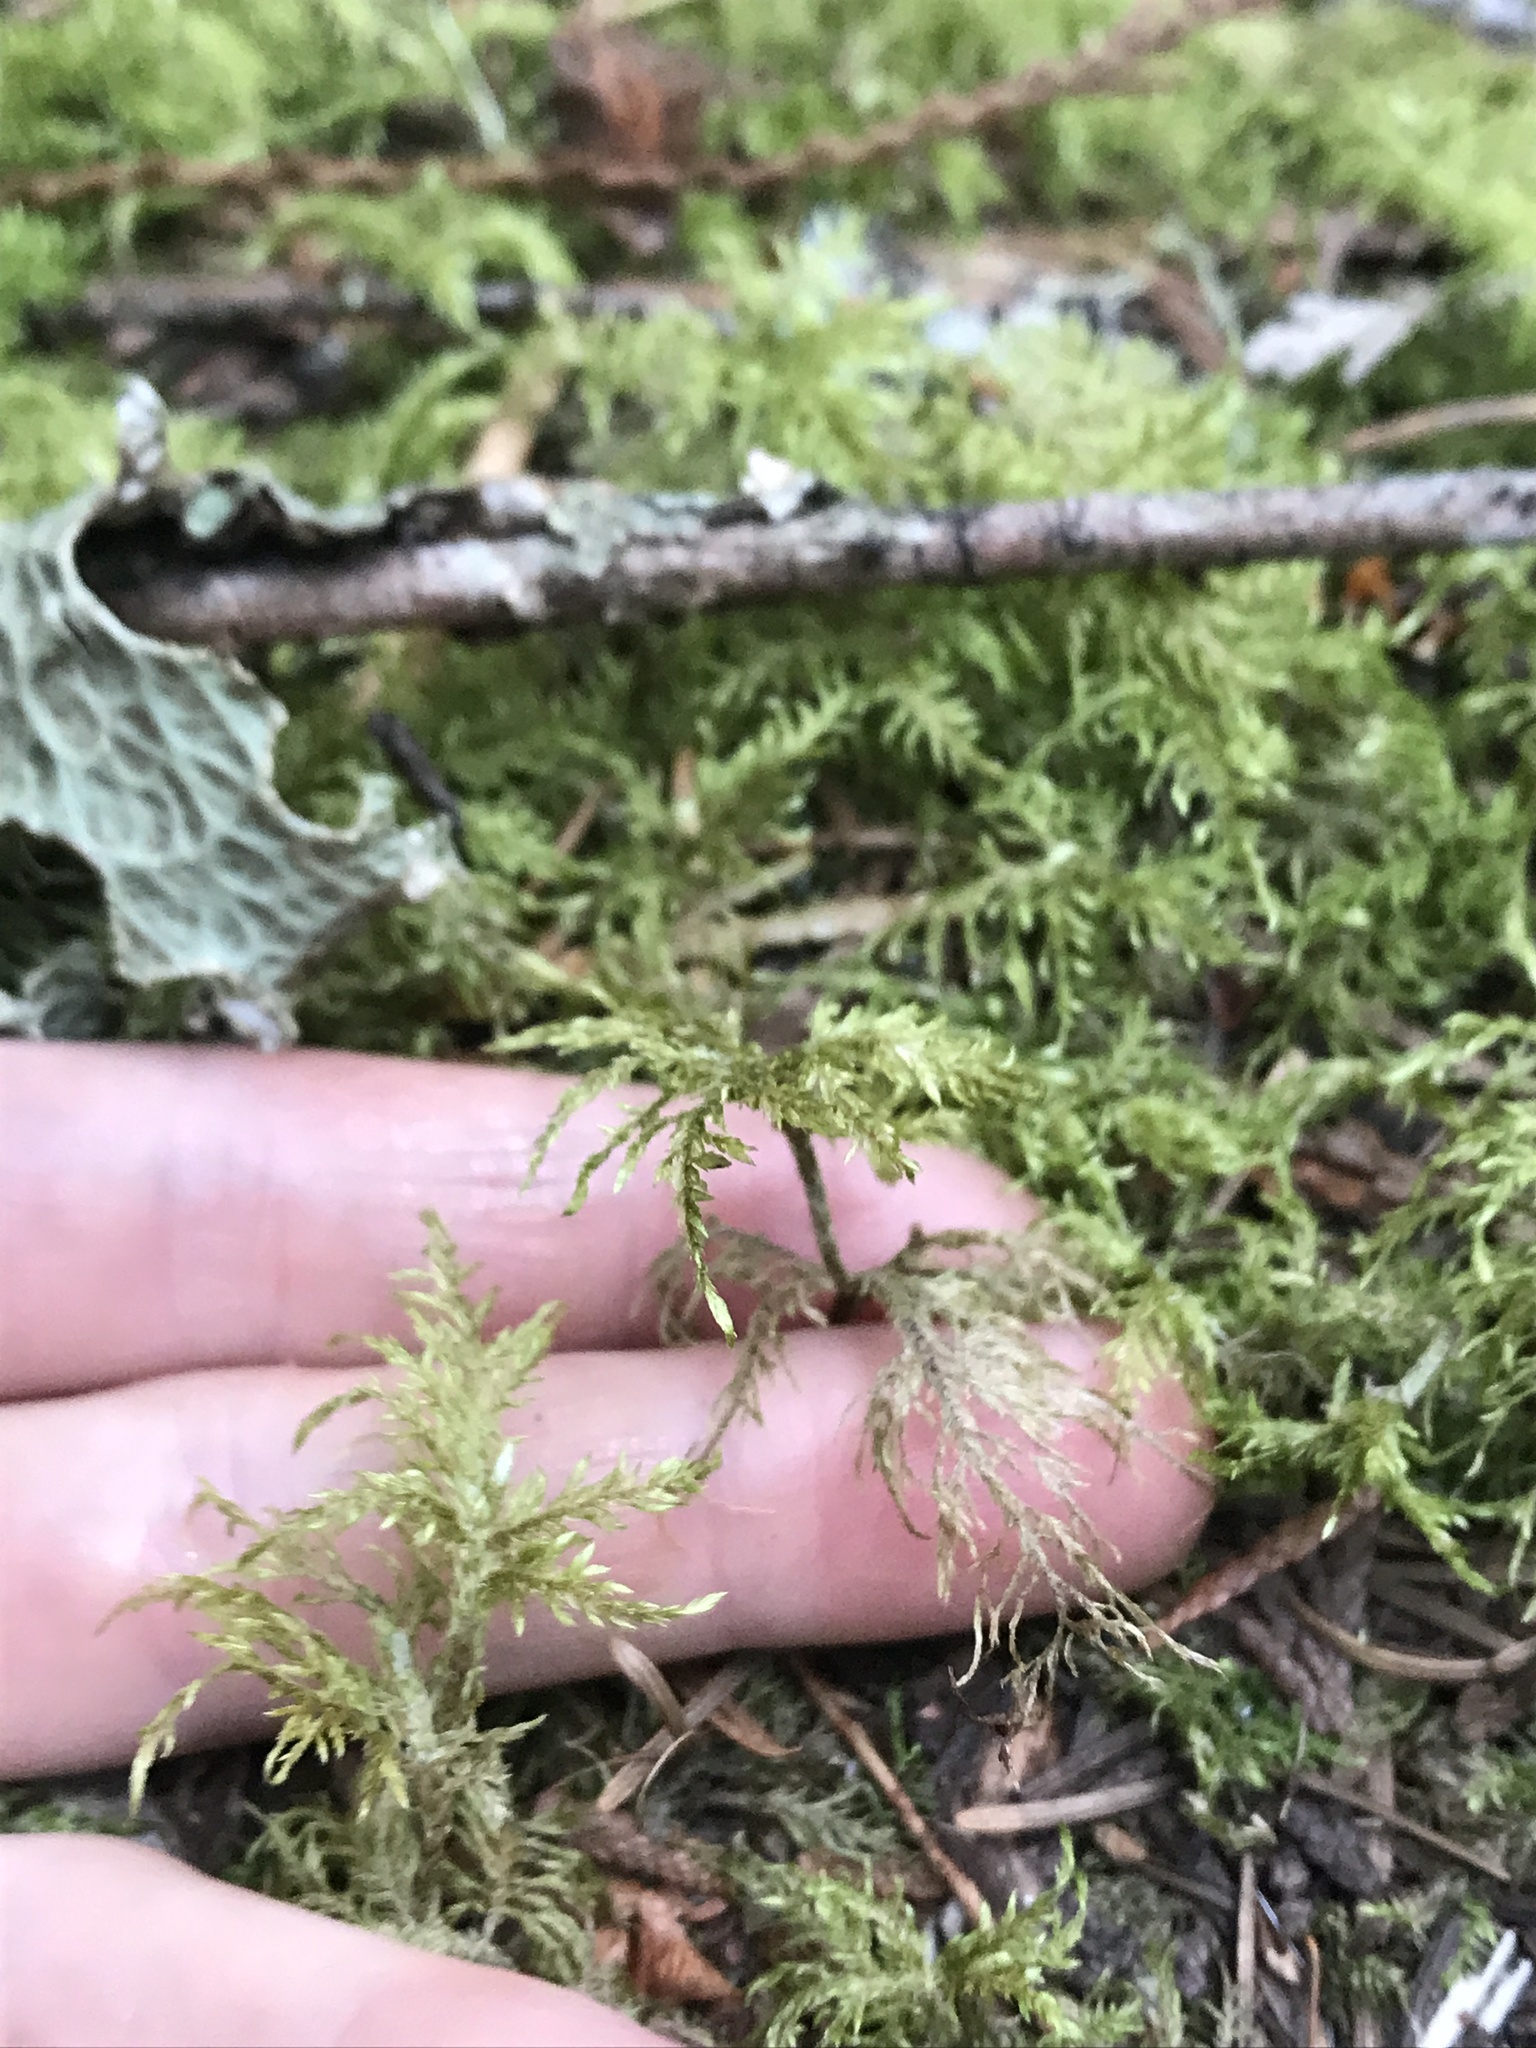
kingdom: Plantae
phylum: Bryophyta
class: Bryopsida
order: Hypnales
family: Hylocomiaceae
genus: Hylocomium
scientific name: Hylocomium splendens
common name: Stairstep moss
